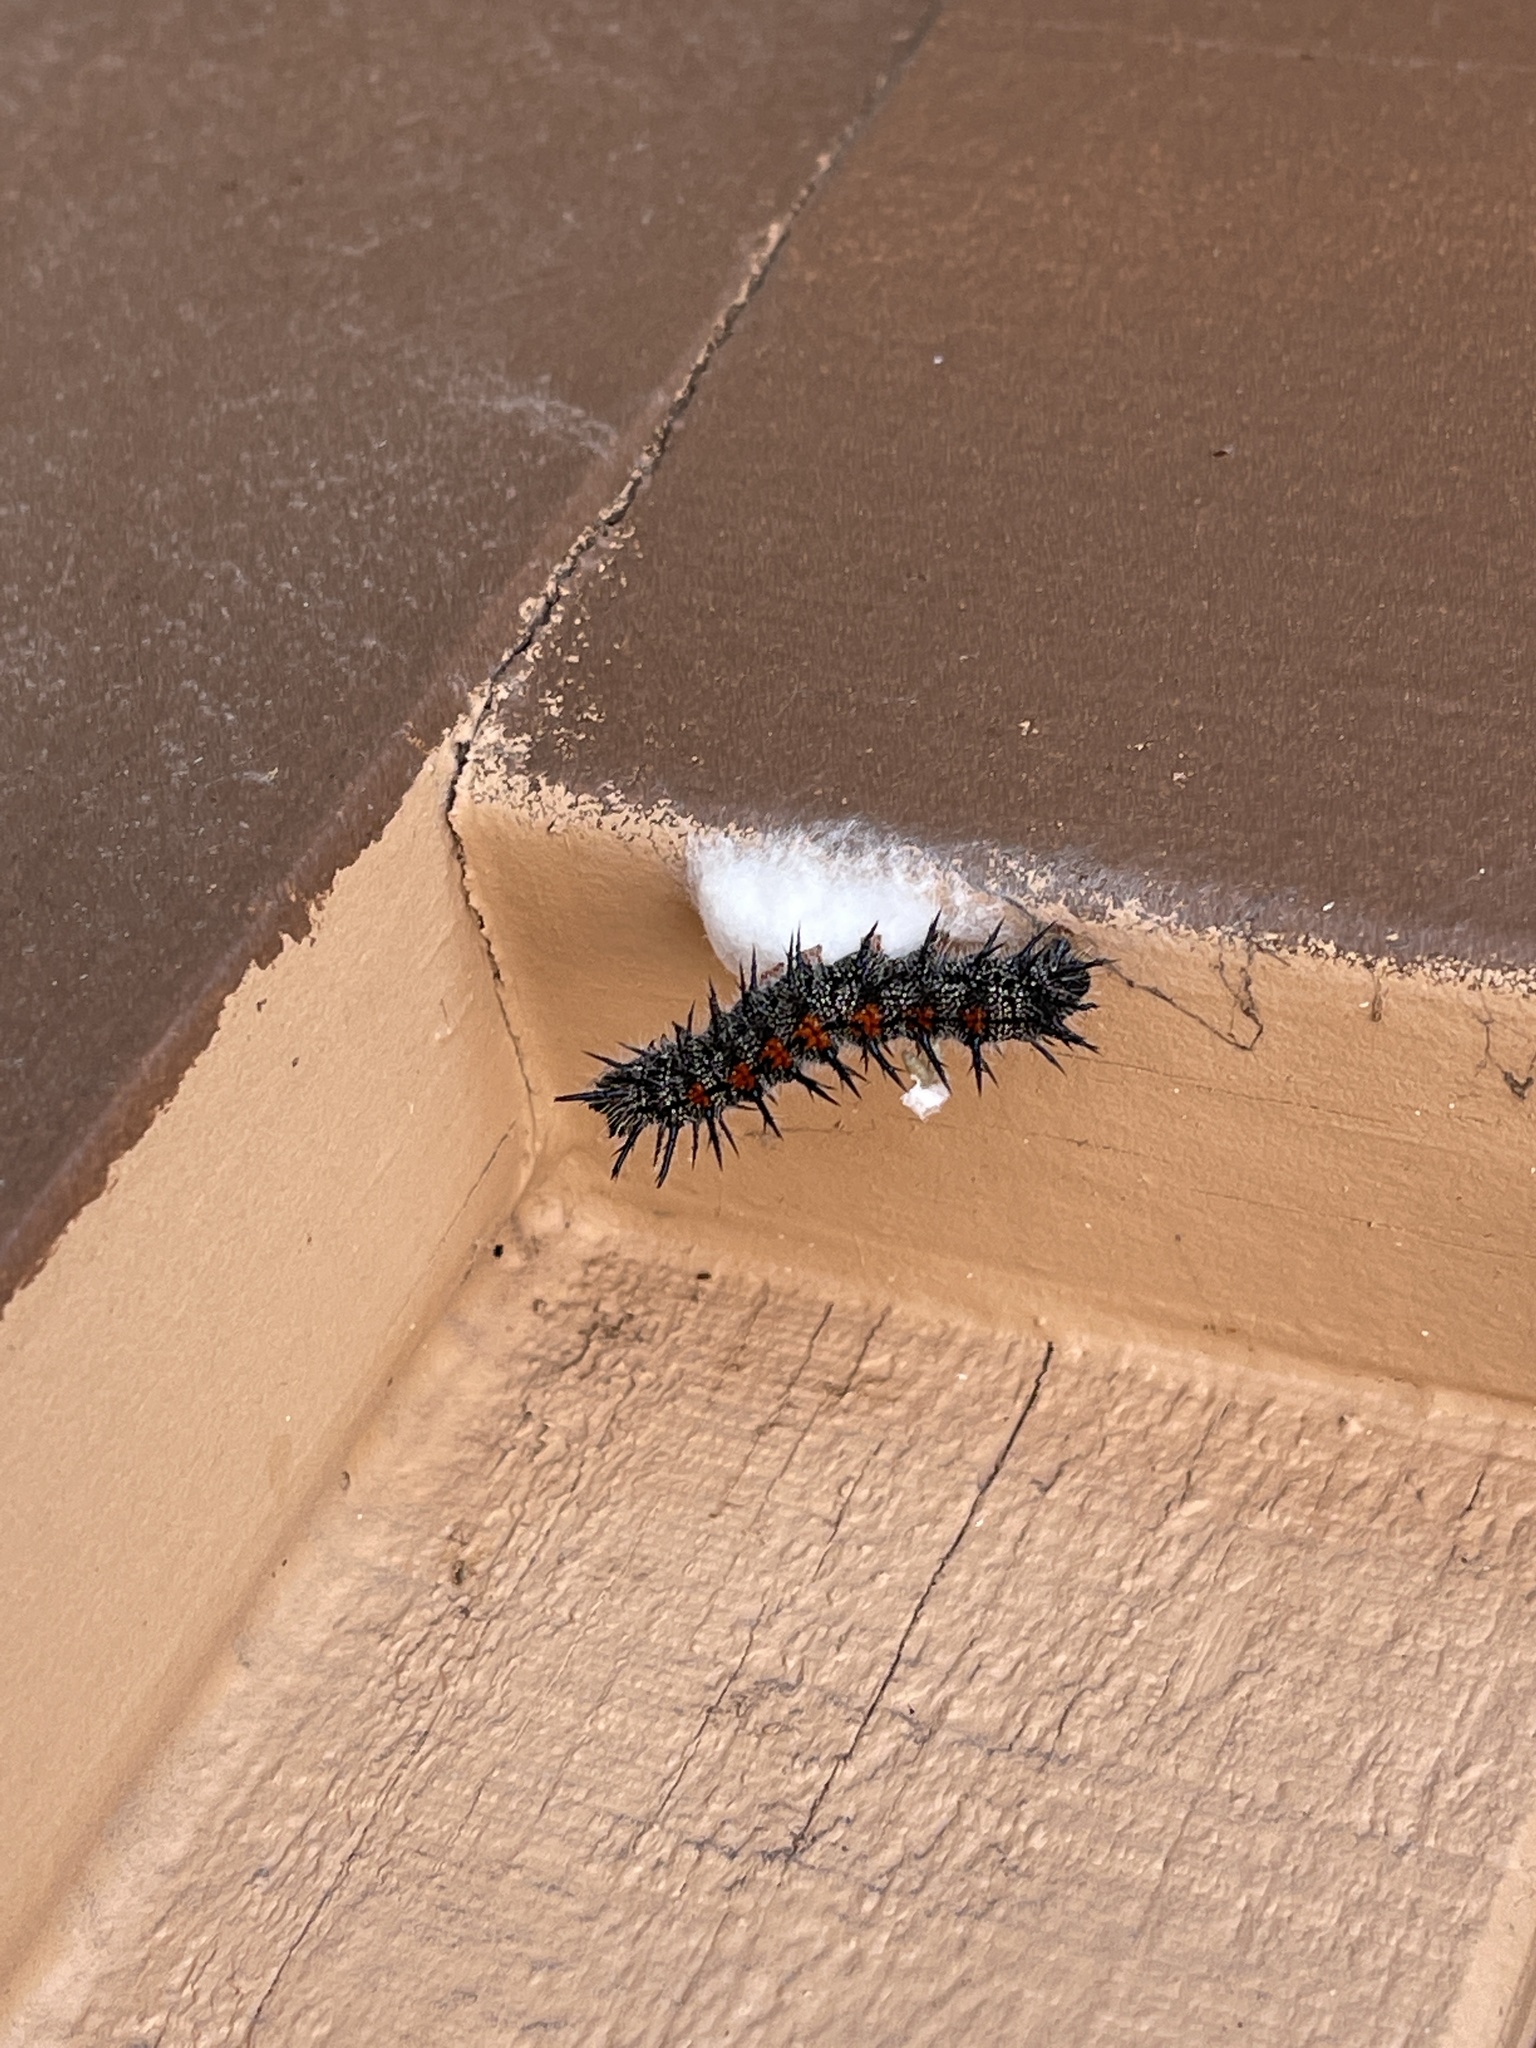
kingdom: Animalia
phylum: Arthropoda
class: Insecta
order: Lepidoptera
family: Nymphalidae
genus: Nymphalis
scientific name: Nymphalis antiopa
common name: Camberwell beauty
